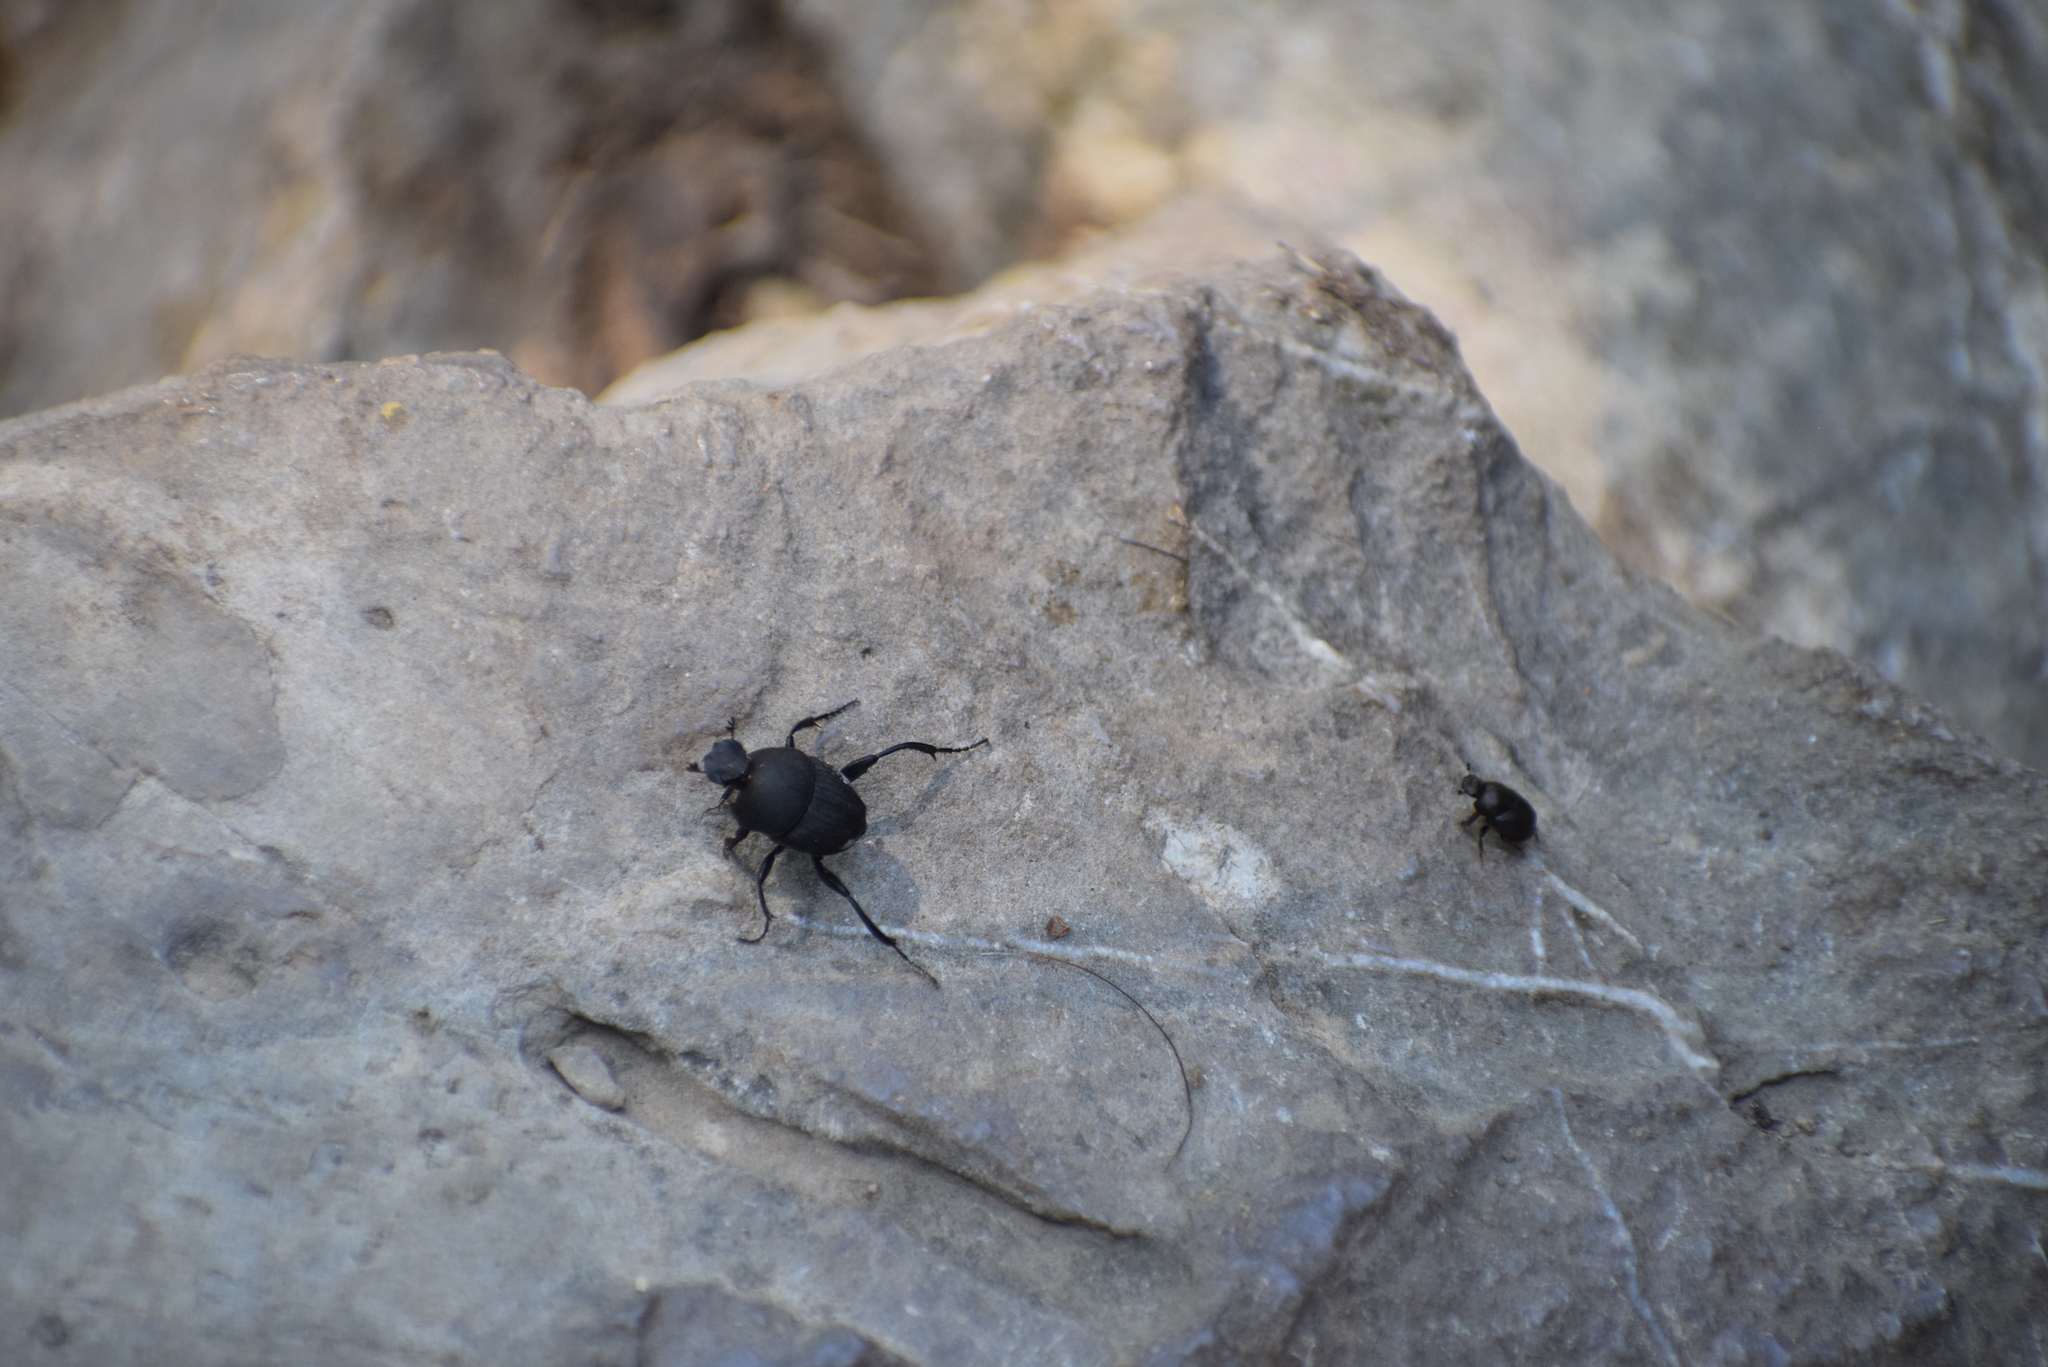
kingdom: Animalia
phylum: Arthropoda
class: Insecta
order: Coleoptera
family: Scarabaeidae
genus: Sisyphus
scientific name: Sisyphus schaefferi
